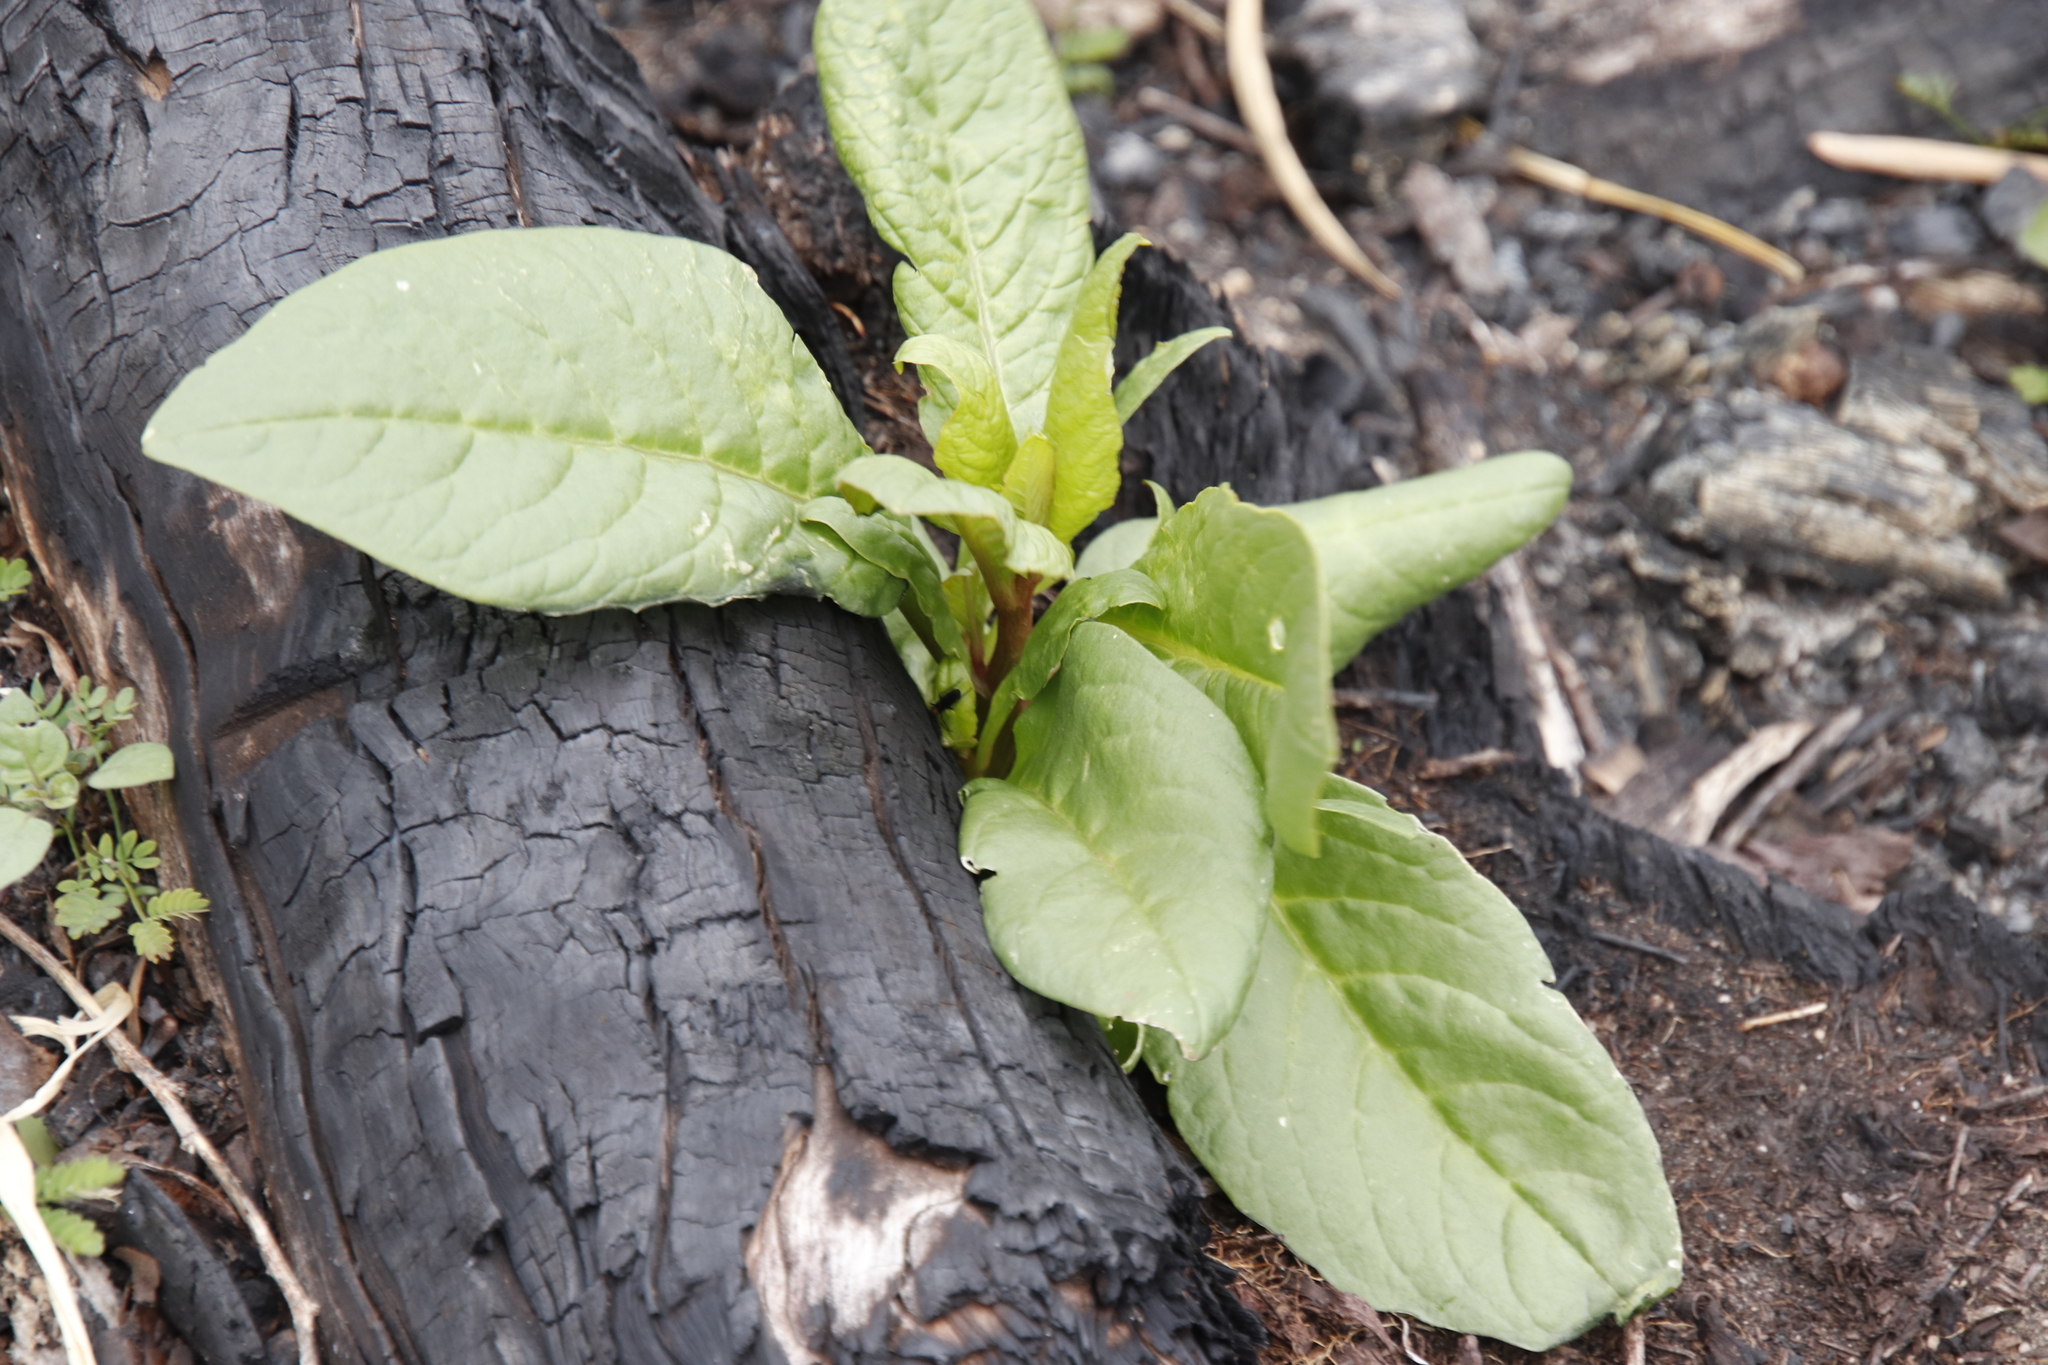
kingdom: Plantae
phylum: Tracheophyta
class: Magnoliopsida
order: Caryophyllales
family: Phytolaccaceae
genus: Phytolacca
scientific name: Phytolacca icosandra
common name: Button pokeweed
